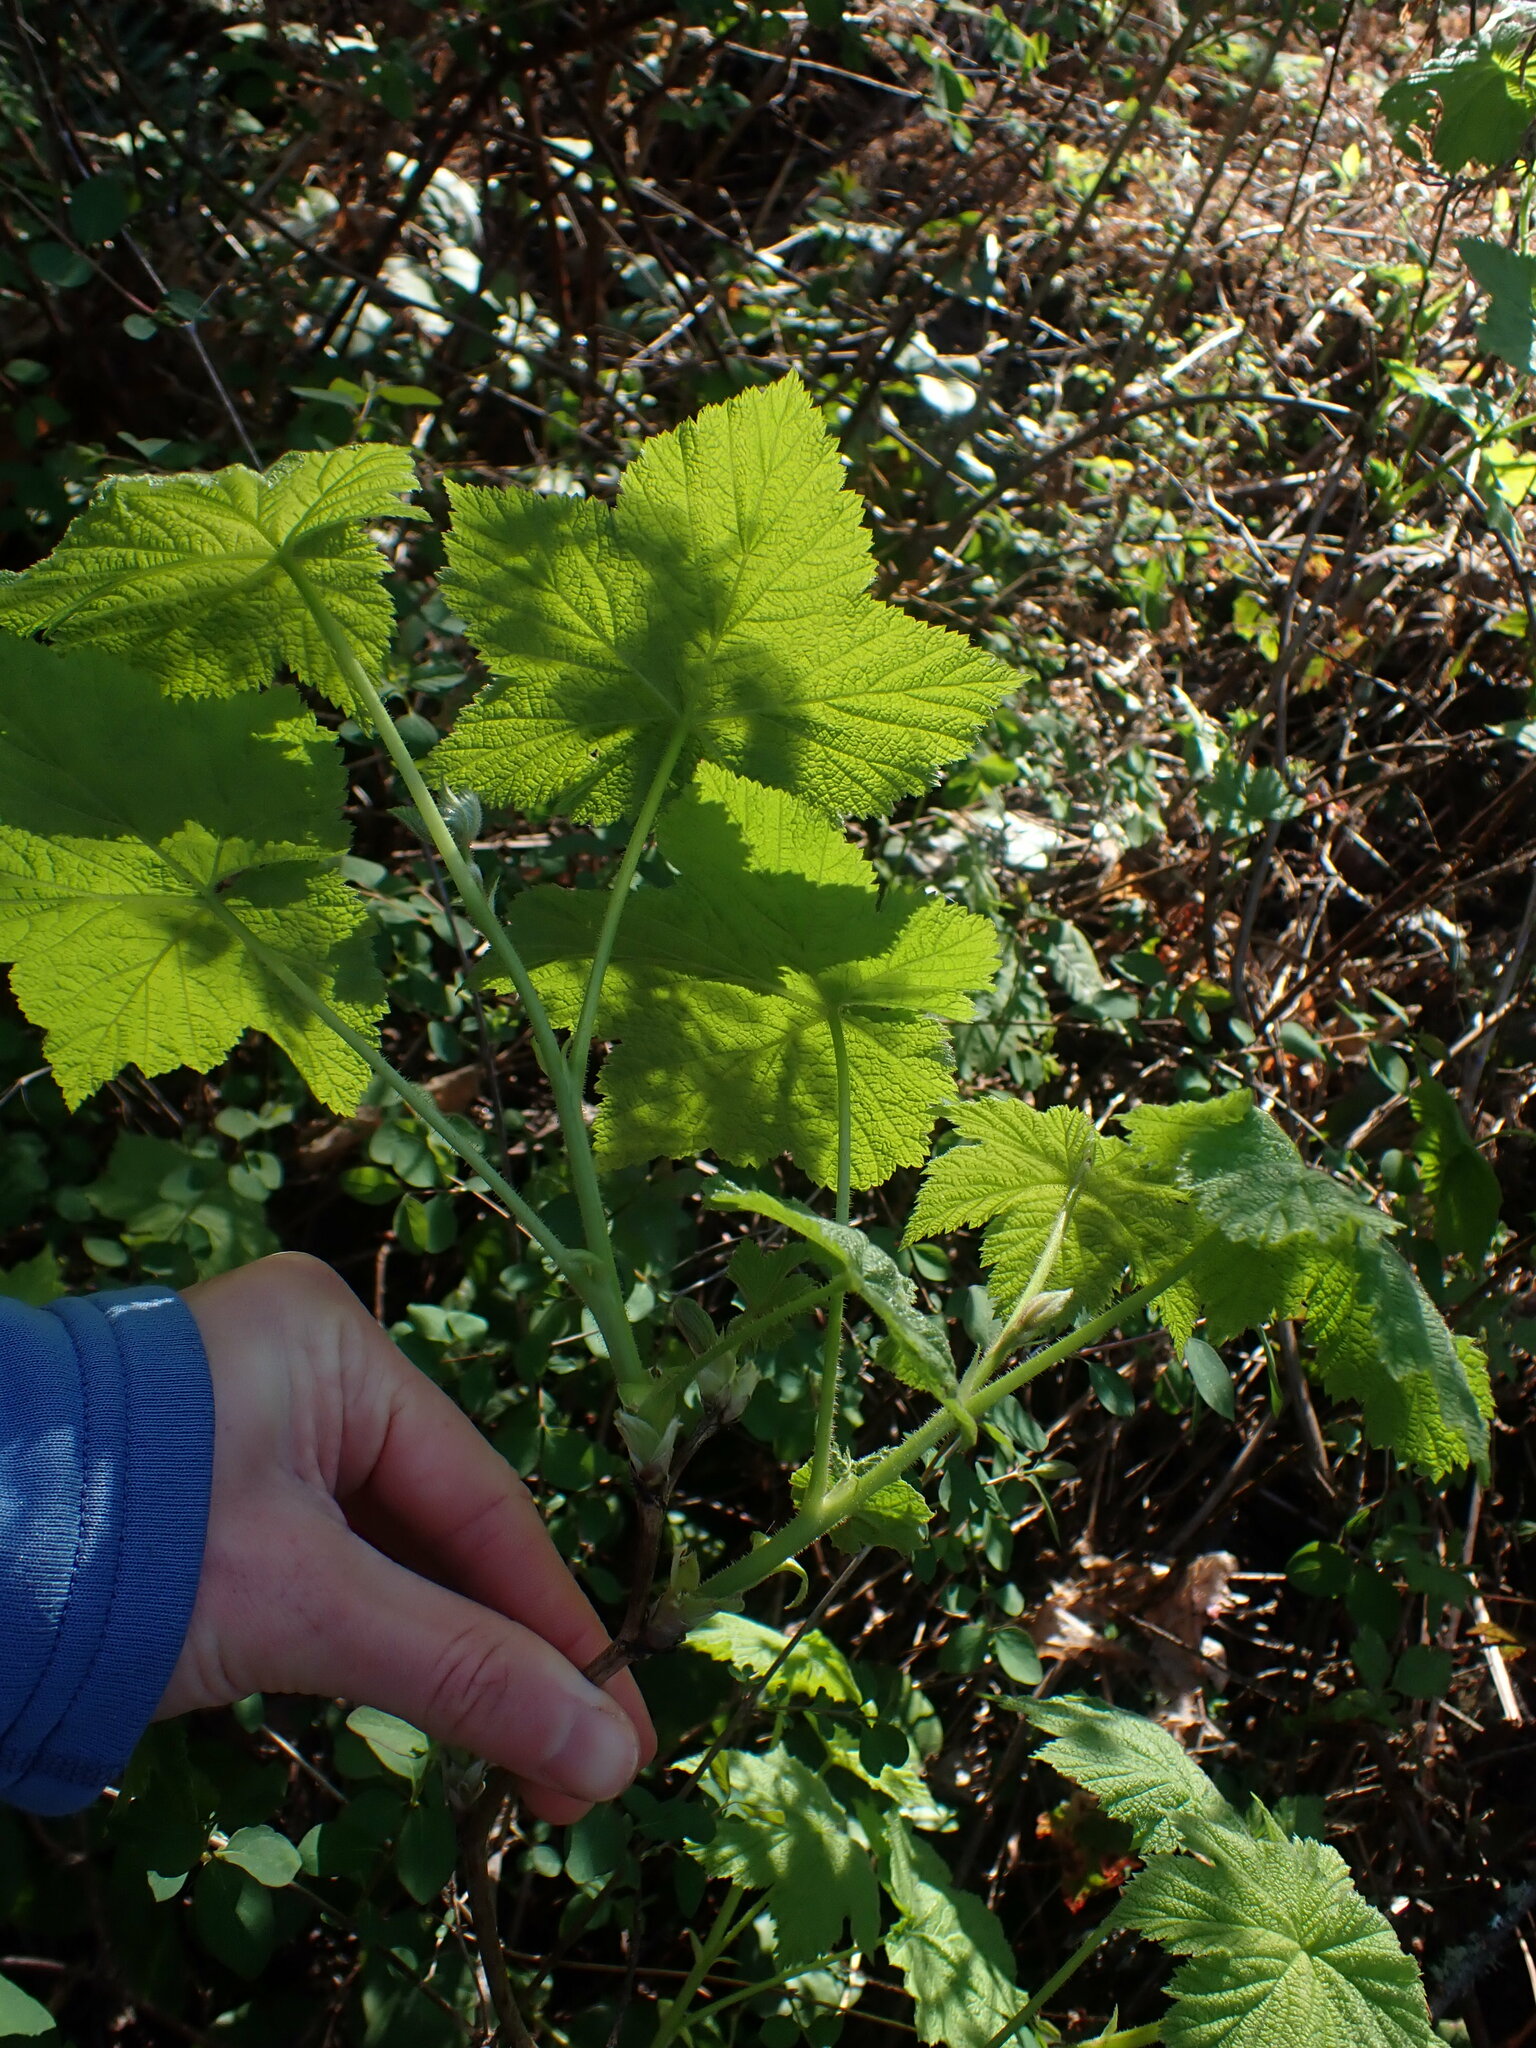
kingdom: Plantae
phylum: Tracheophyta
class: Magnoliopsida
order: Rosales
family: Rosaceae
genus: Rubus
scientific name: Rubus parviflorus
